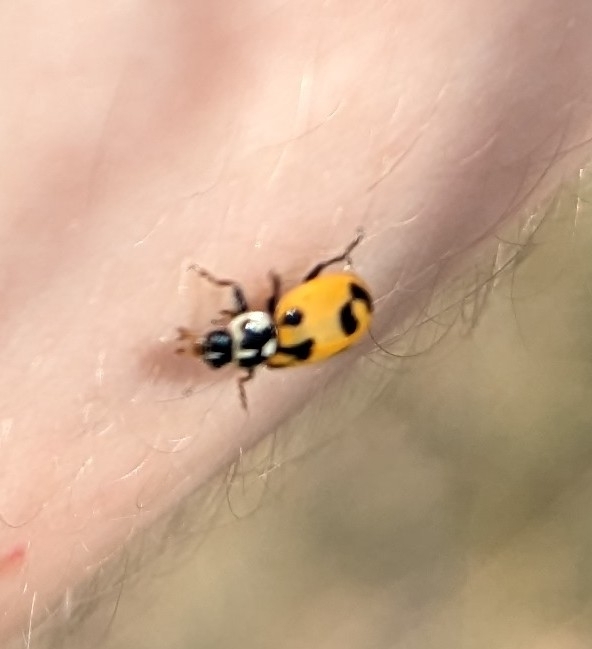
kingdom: Animalia
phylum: Arthropoda
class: Insecta
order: Coleoptera
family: Coccinellidae
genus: Hippodamia
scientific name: Hippodamia parenthesis
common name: Parenthesis lady beetle
